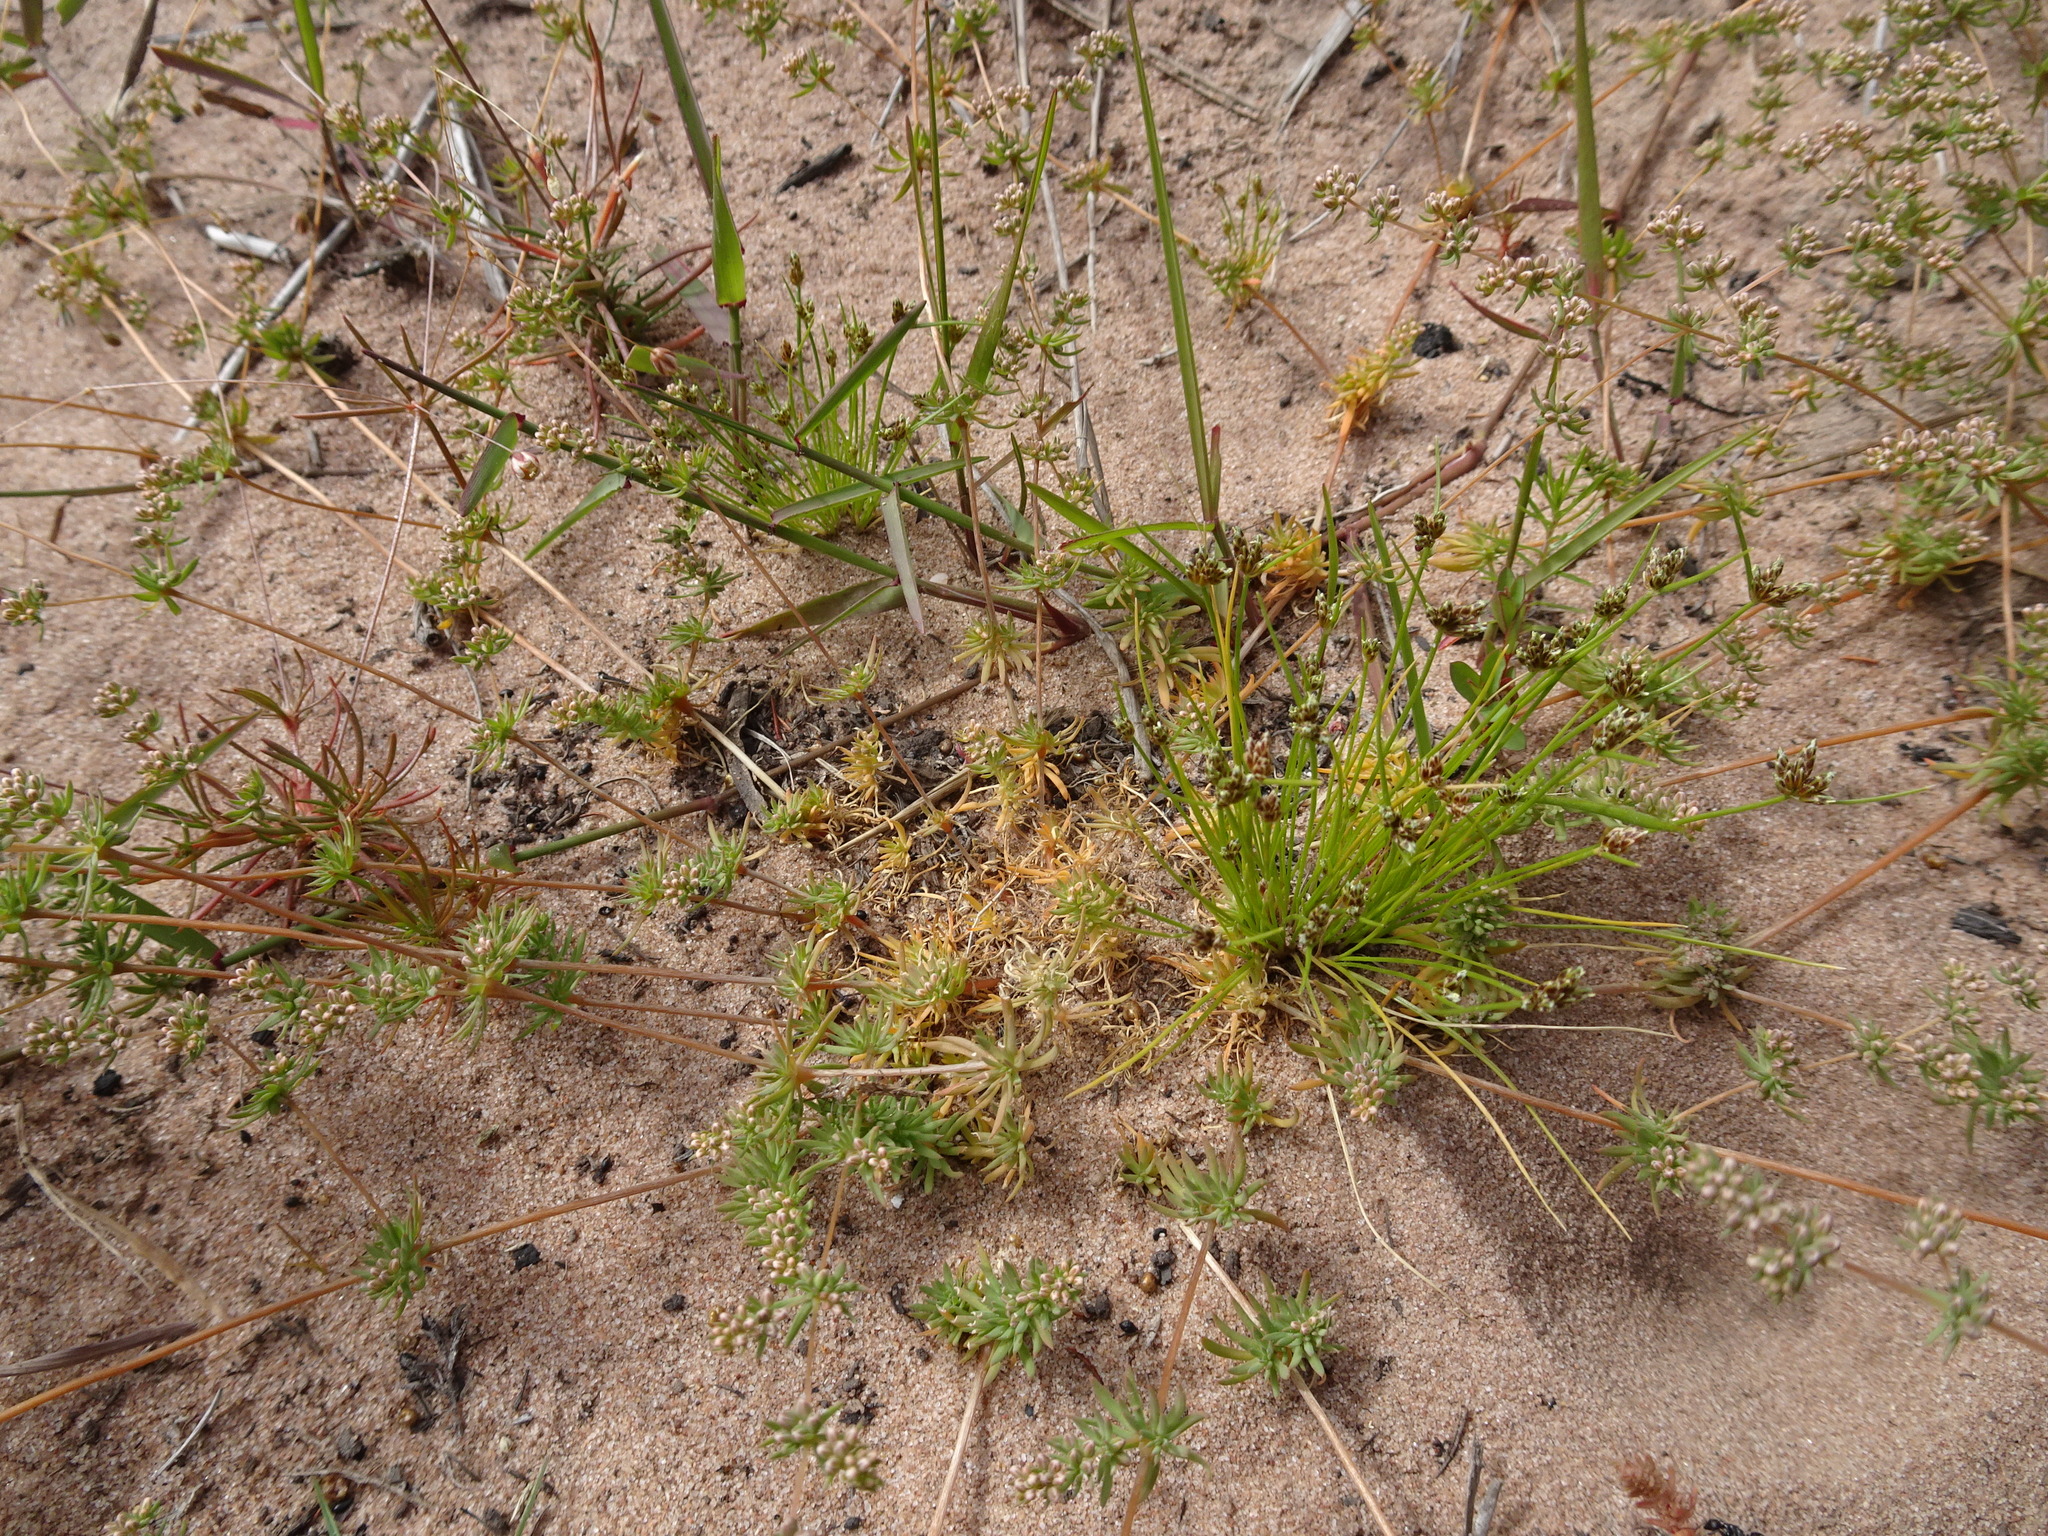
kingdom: Plantae
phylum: Tracheophyta
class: Magnoliopsida
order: Caryophyllales
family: Molluginaceae
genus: Adenogramma
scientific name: Adenogramma glomerata
